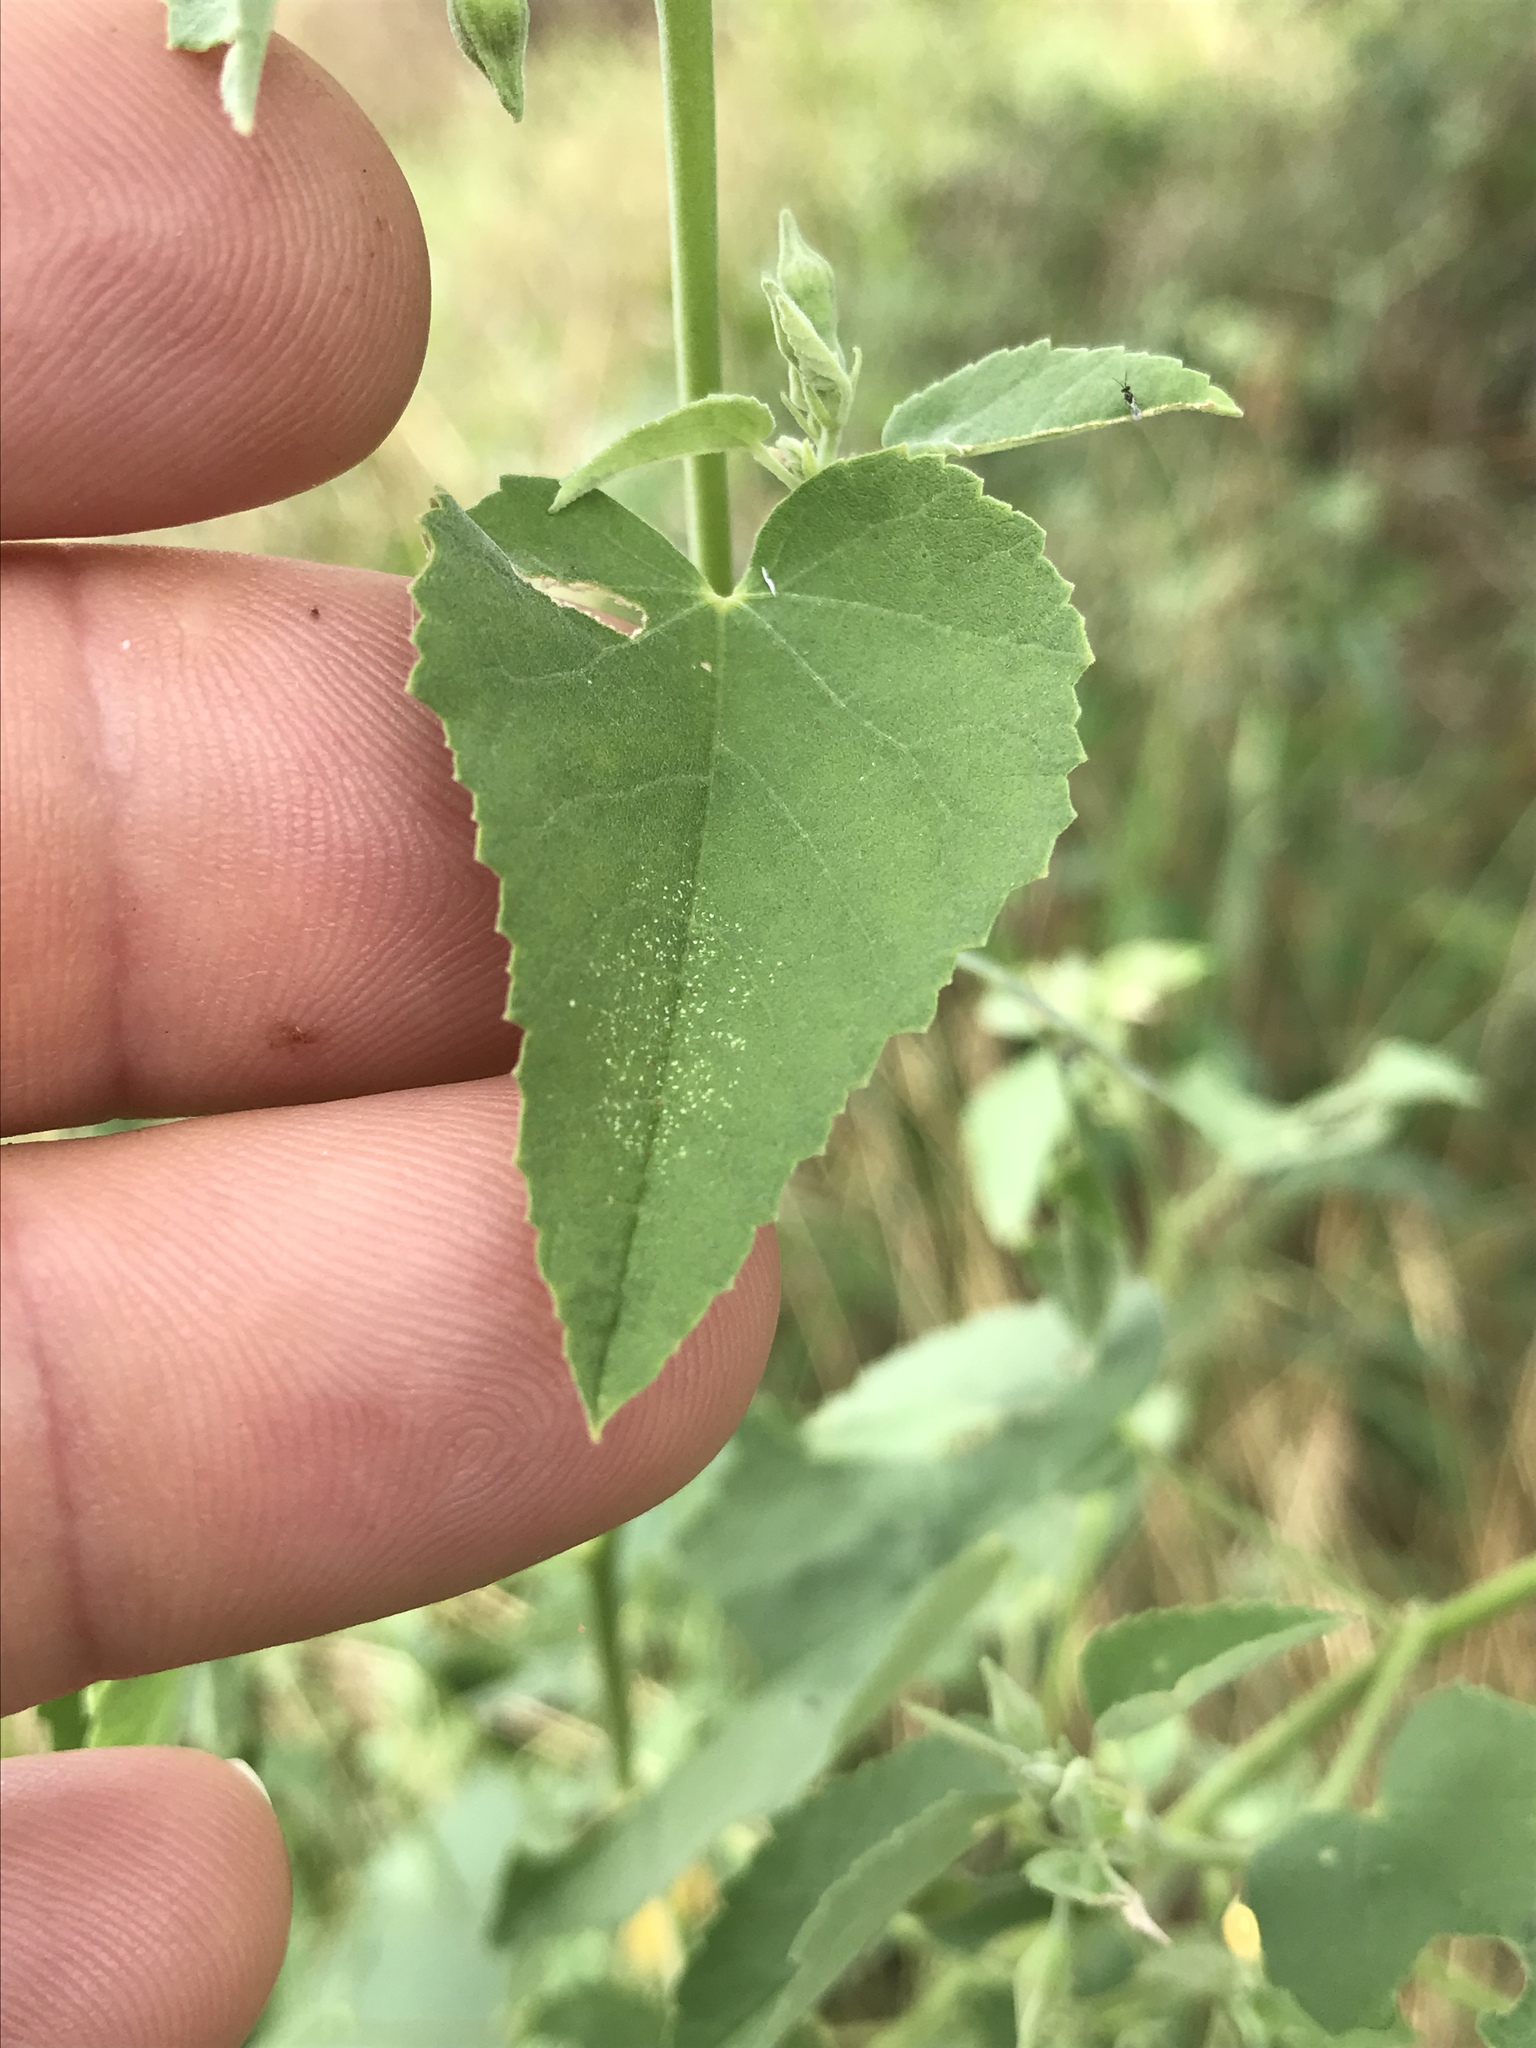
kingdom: Plantae
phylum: Tracheophyta
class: Magnoliopsida
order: Malvales
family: Malvaceae
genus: Abutilon
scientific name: Abutilon fruticosum
